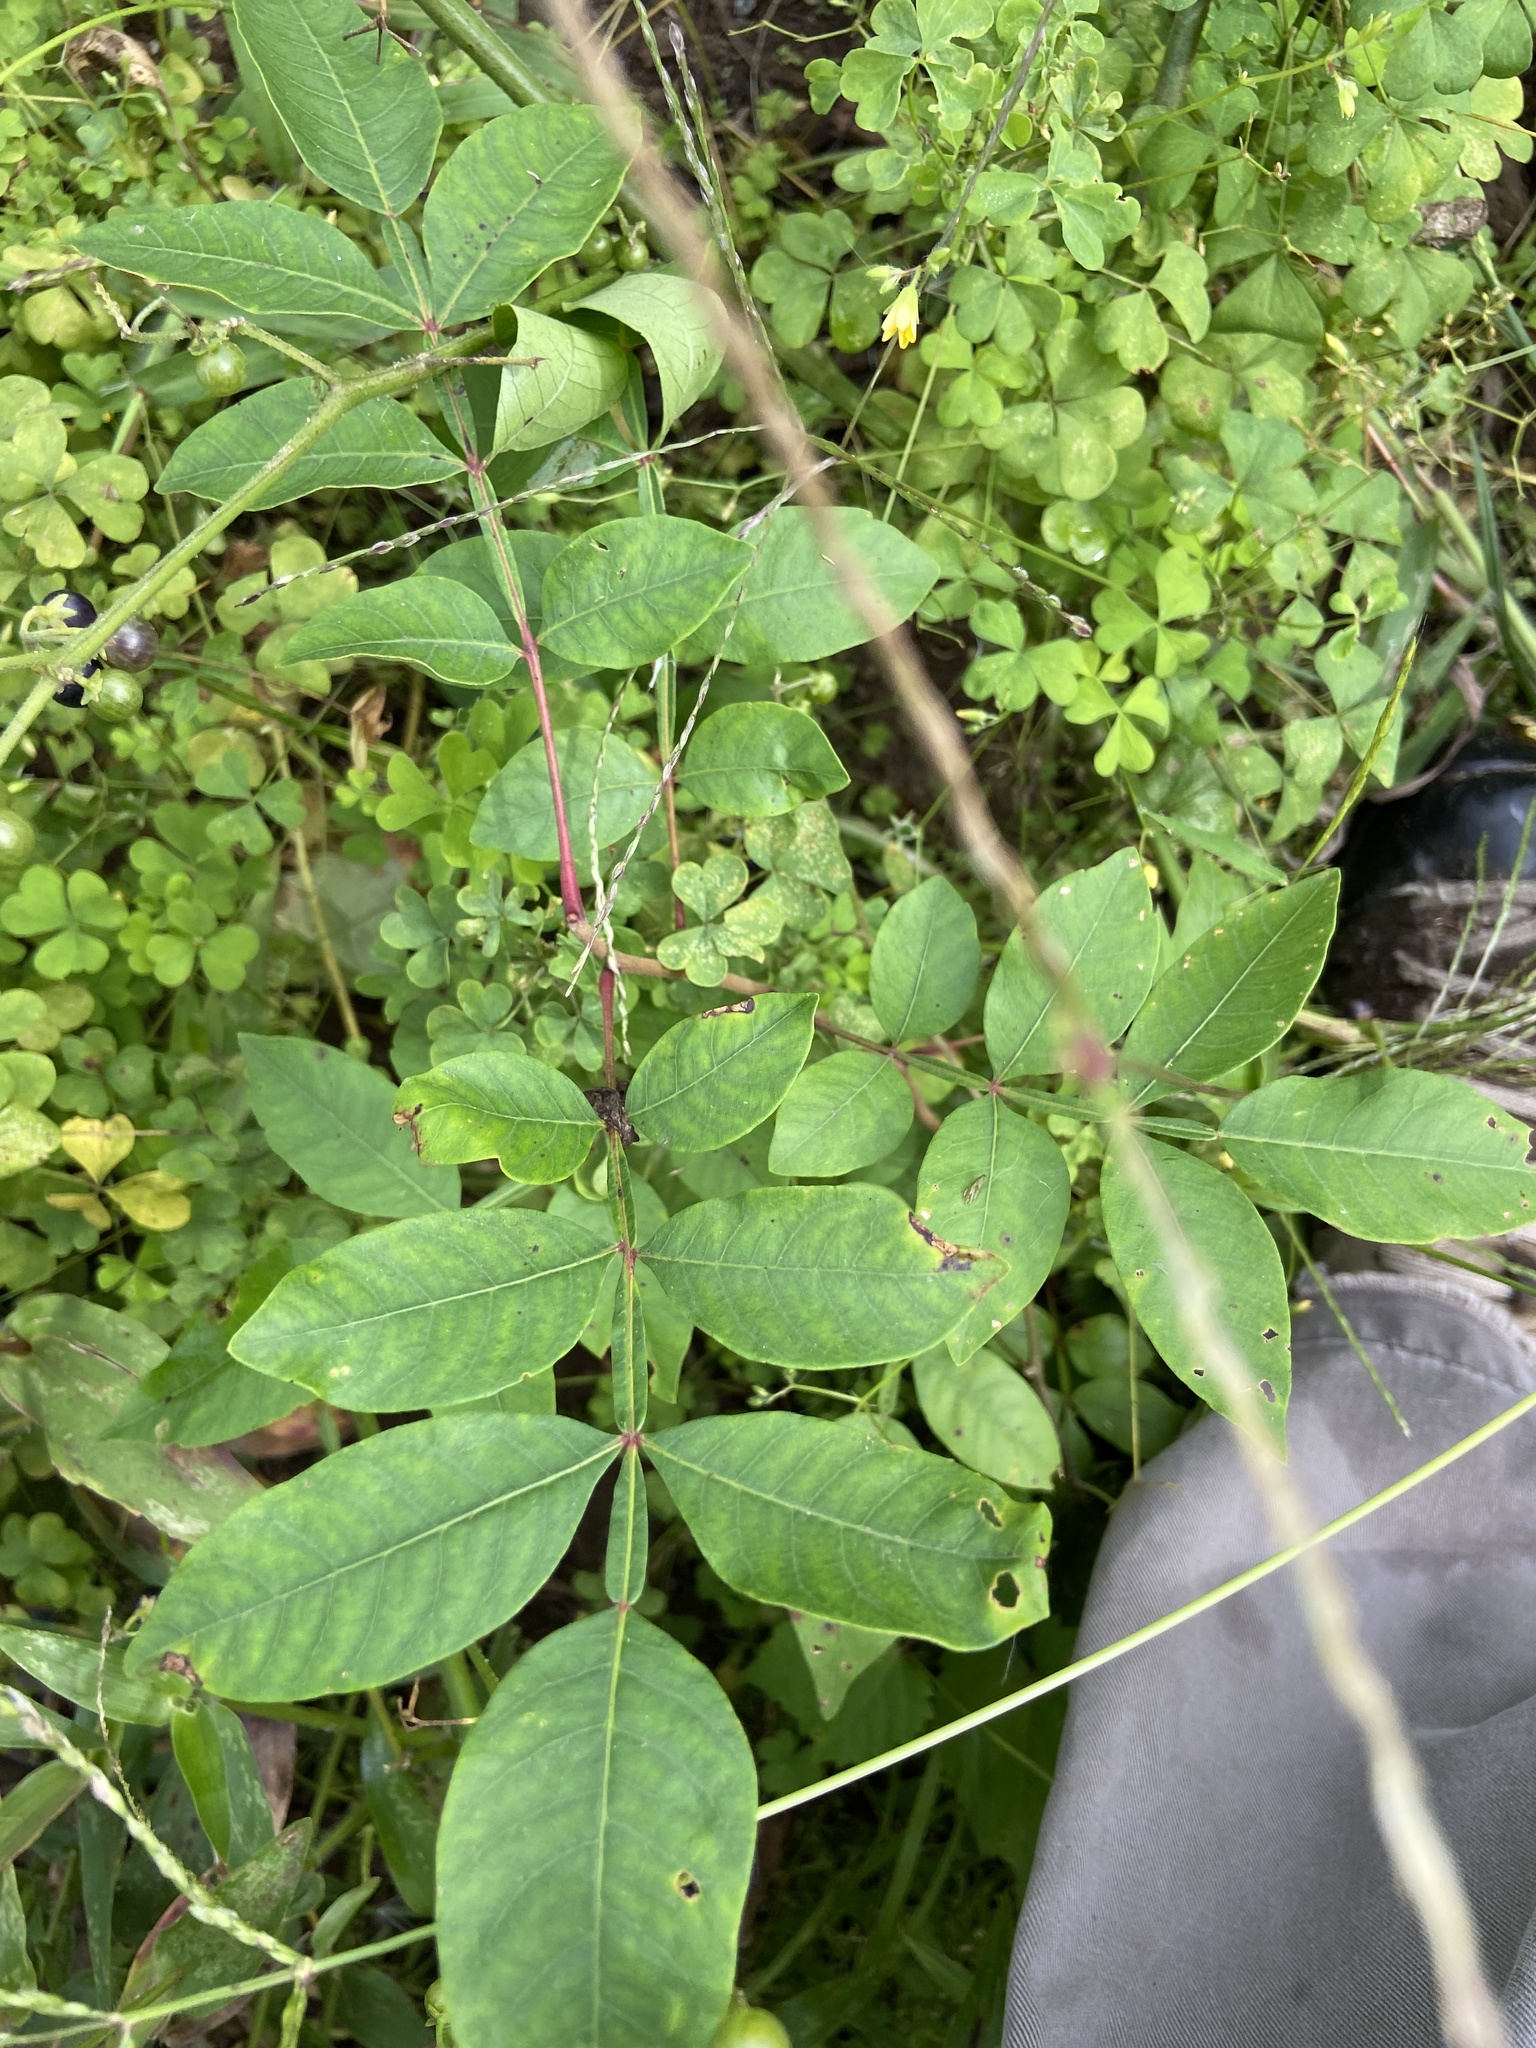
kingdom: Plantae
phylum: Tracheophyta
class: Magnoliopsida
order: Sapindales
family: Anacardiaceae
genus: Rhus
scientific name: Rhus copallina
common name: Shining sumac
